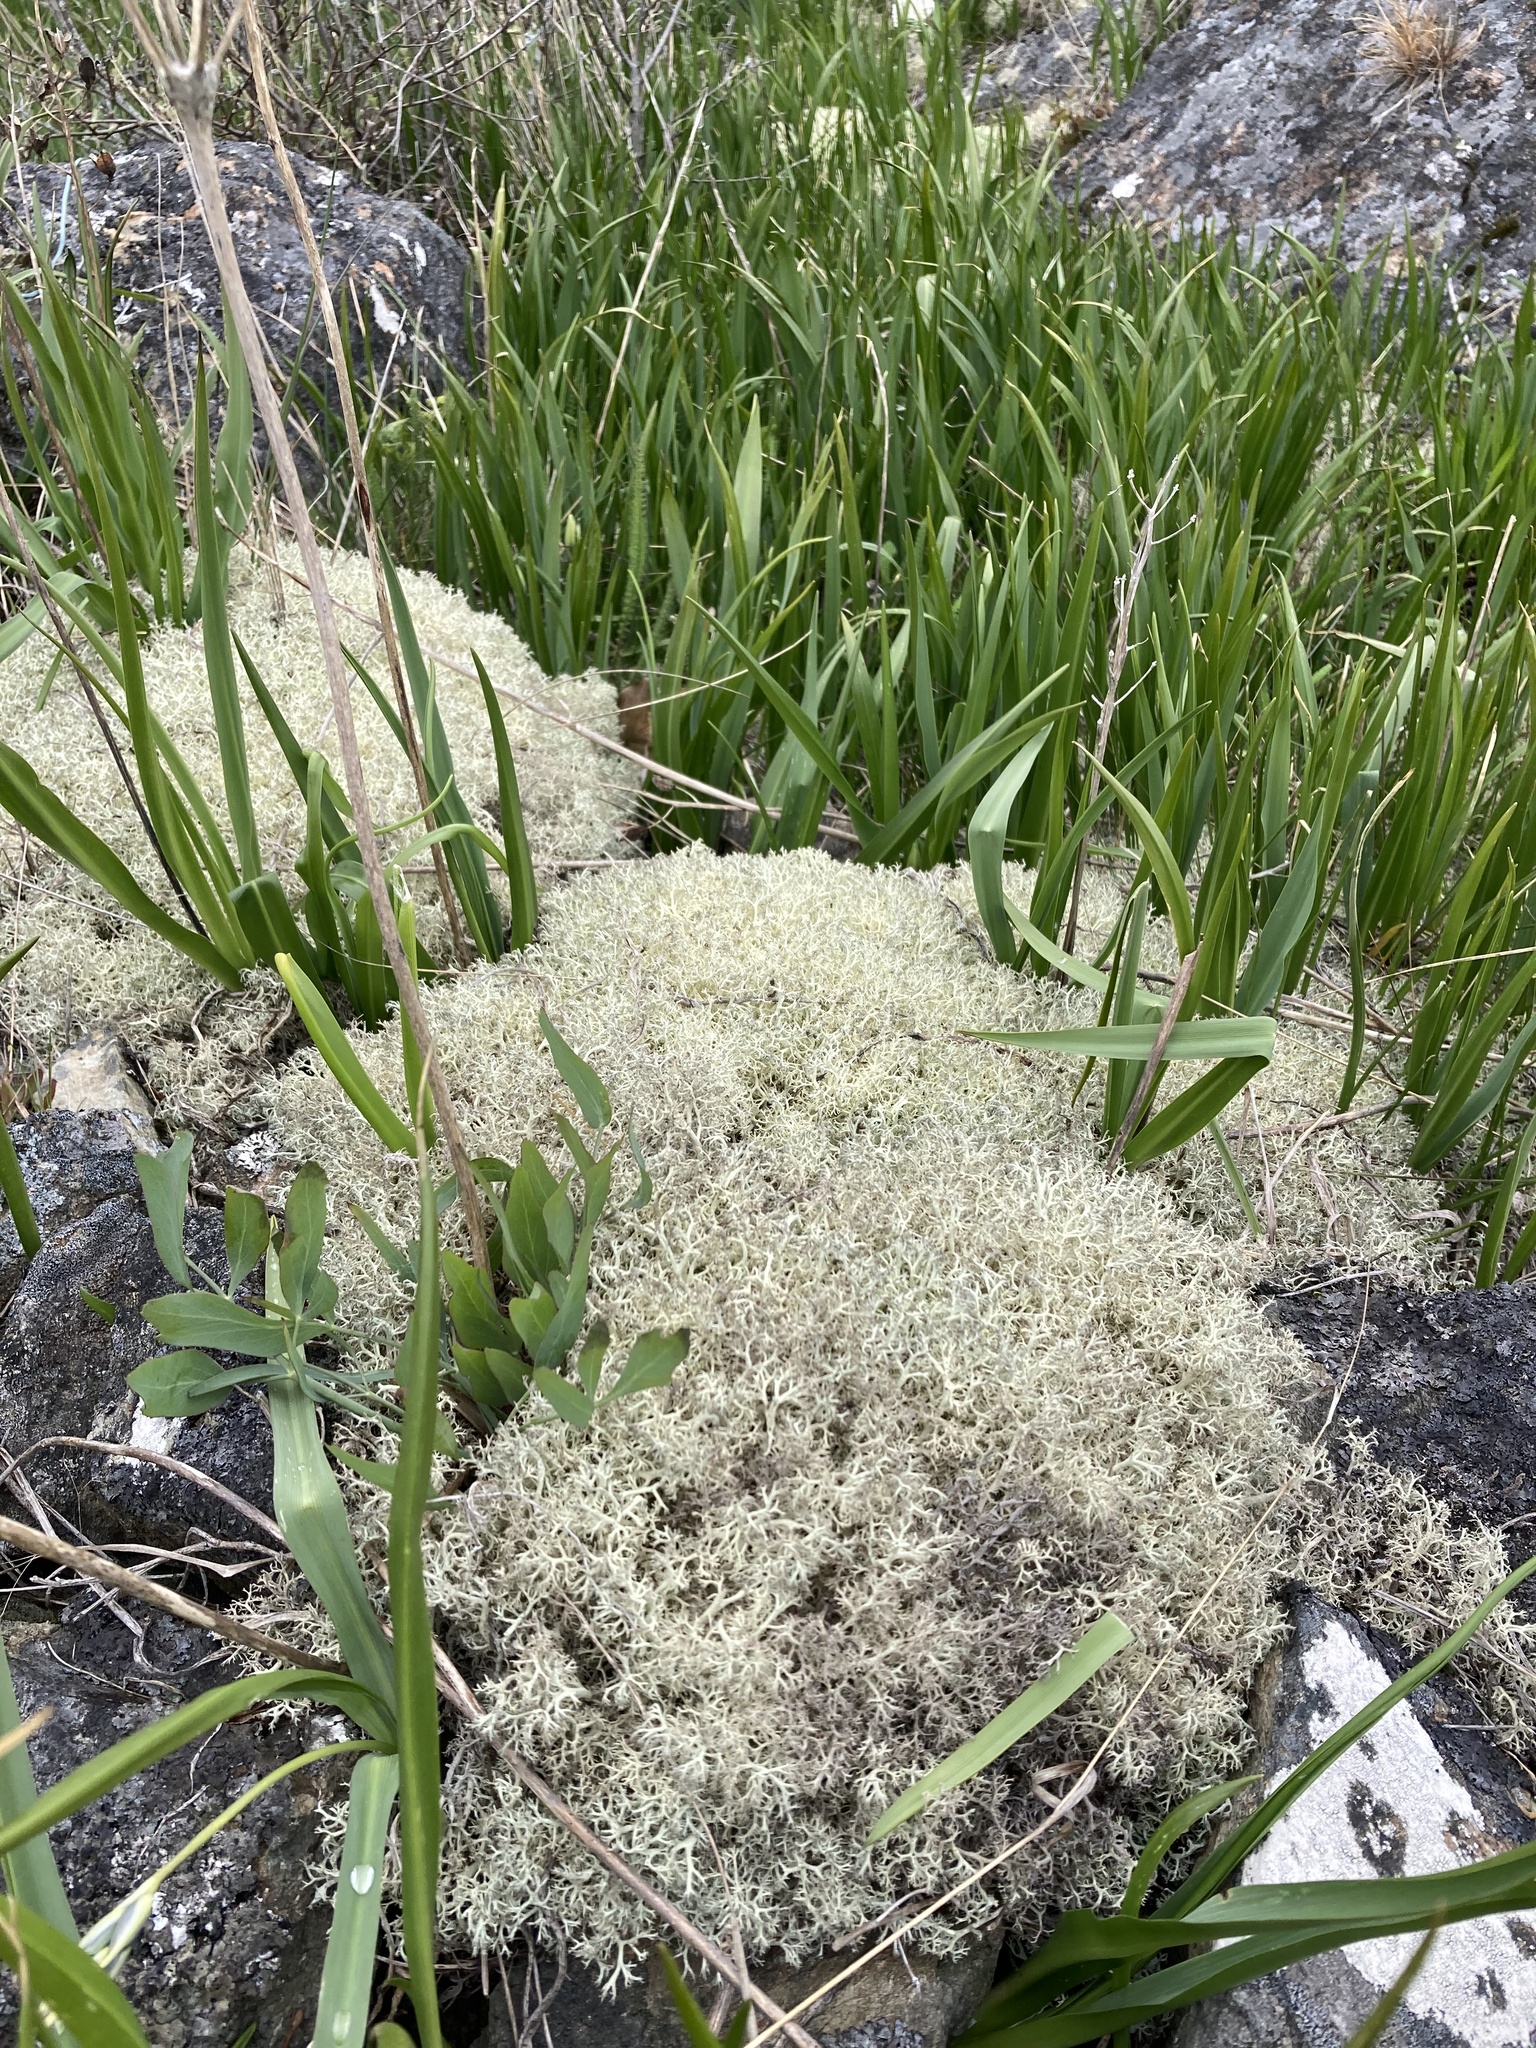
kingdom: Fungi
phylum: Ascomycota
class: Lecanoromycetes
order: Lecanorales
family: Cladoniaceae
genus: Cladonia
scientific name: Cladonia portentosa
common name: Reindeer lichen
